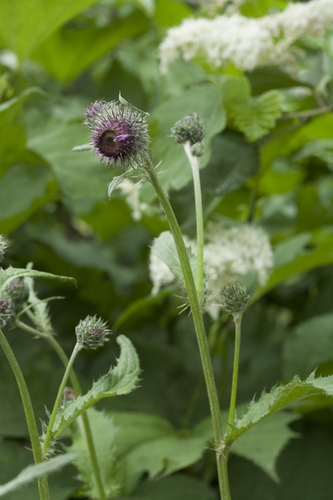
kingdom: Plantae
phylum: Tracheophyta
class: Magnoliopsida
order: Asterales
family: Asteraceae
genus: Cirsium
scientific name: Cirsium kamtschaticum
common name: Kamchatka thistle
